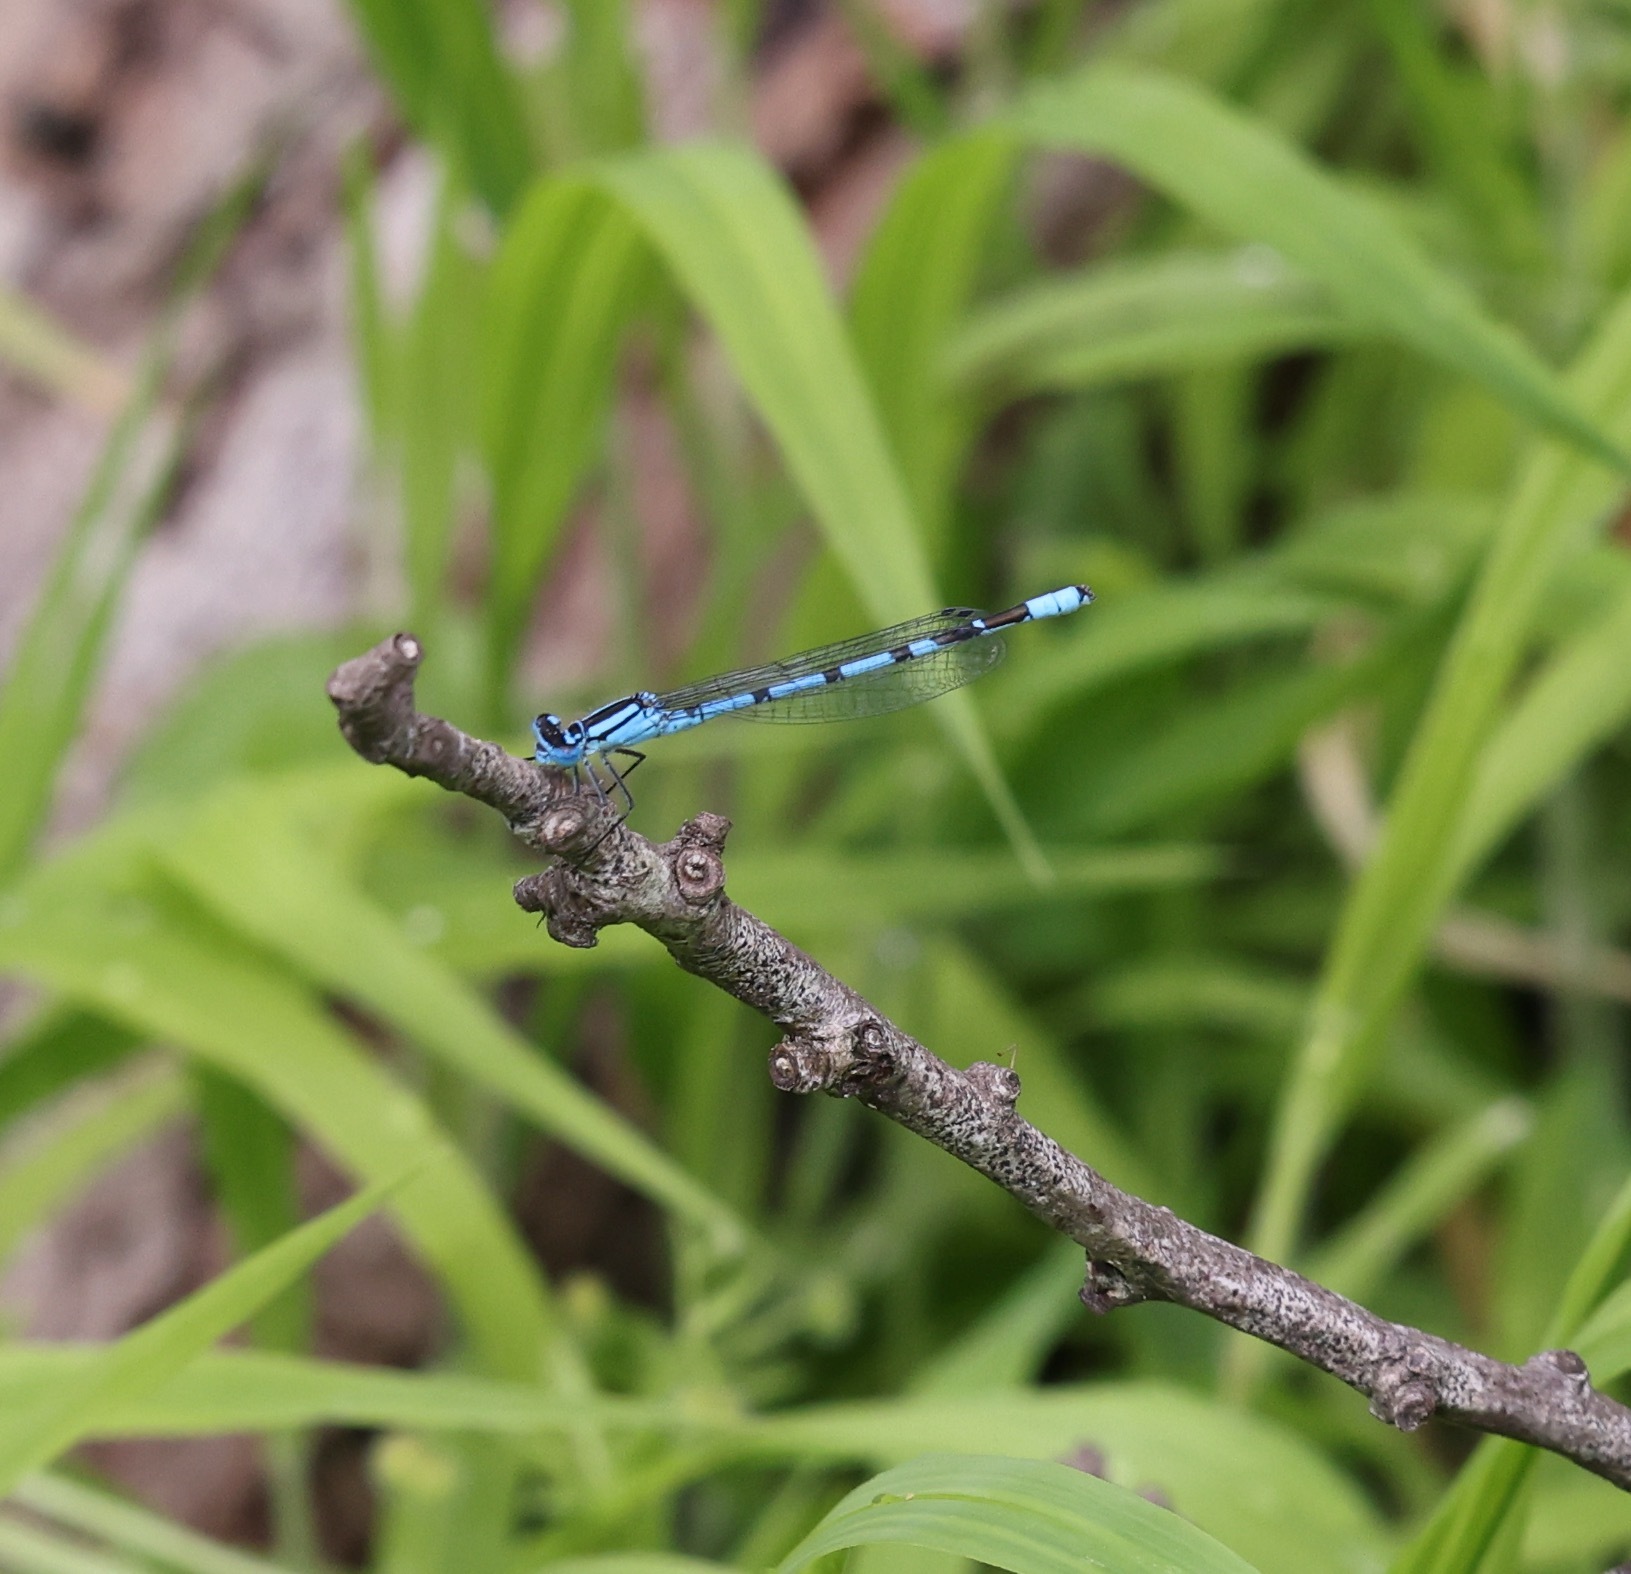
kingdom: Animalia
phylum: Arthropoda
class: Insecta
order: Odonata
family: Coenagrionidae
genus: Enallagma
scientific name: Enallagma cyathigerum
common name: Common blue damselfly
